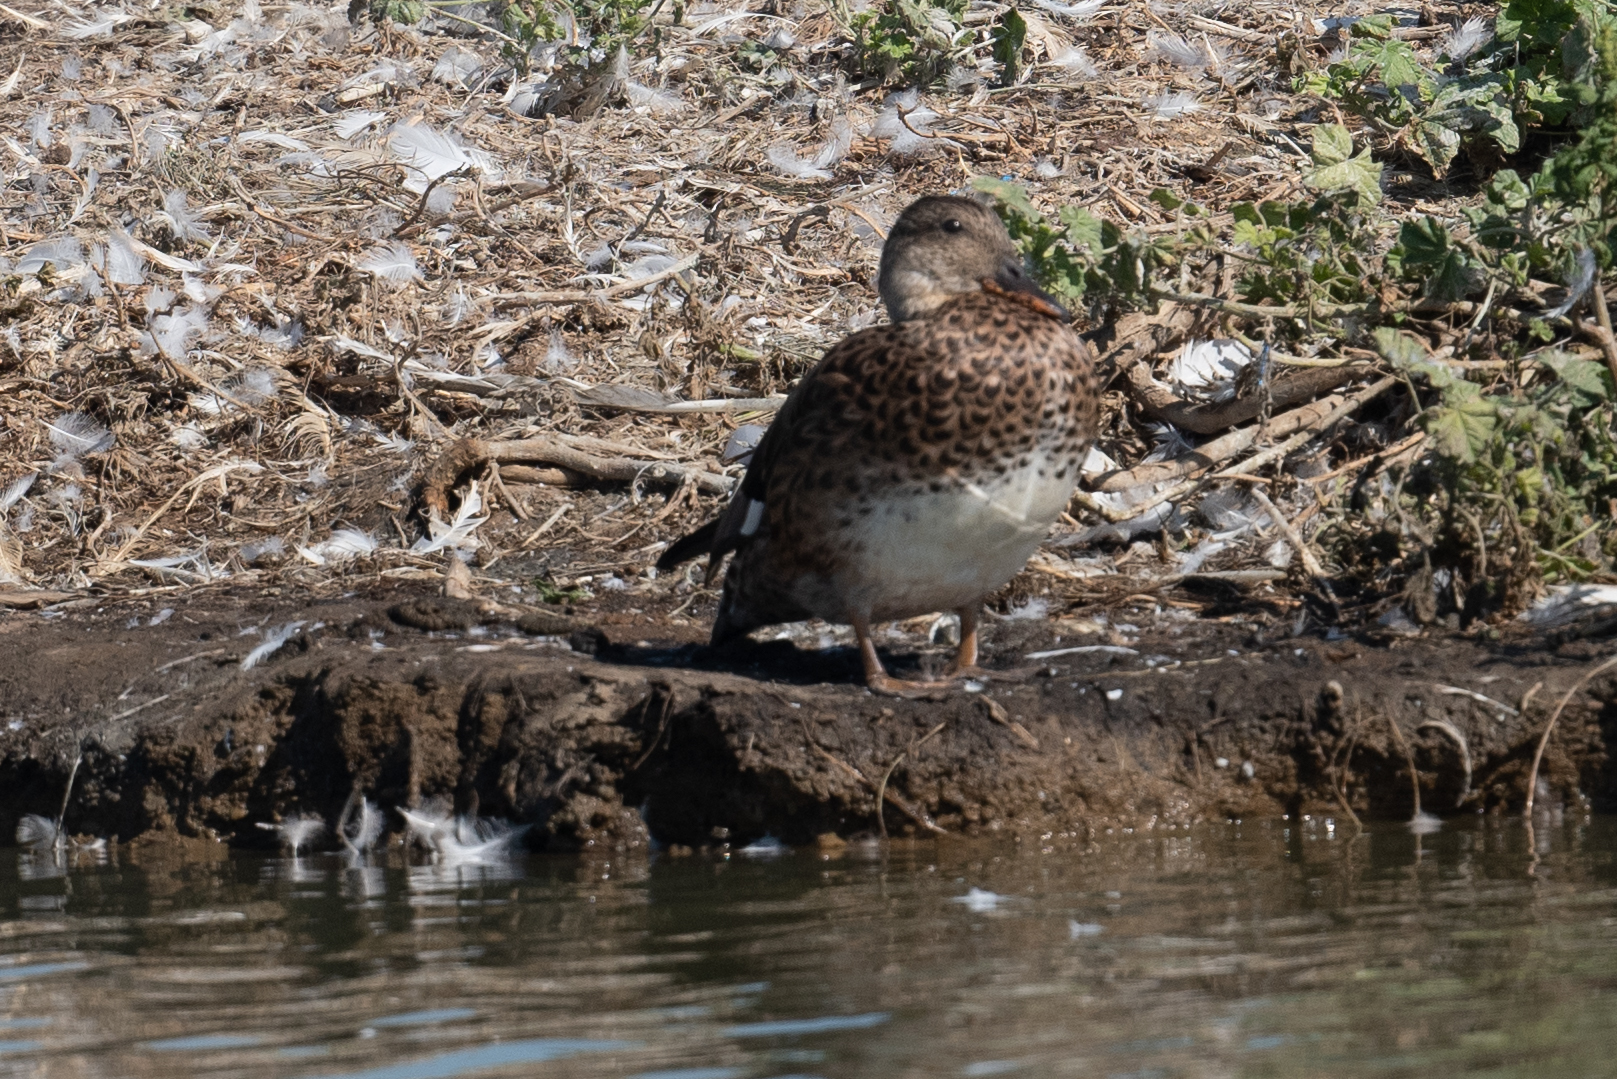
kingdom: Animalia
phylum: Chordata
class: Aves
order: Anseriformes
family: Anatidae
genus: Mareca
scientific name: Mareca strepera
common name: Gadwall
